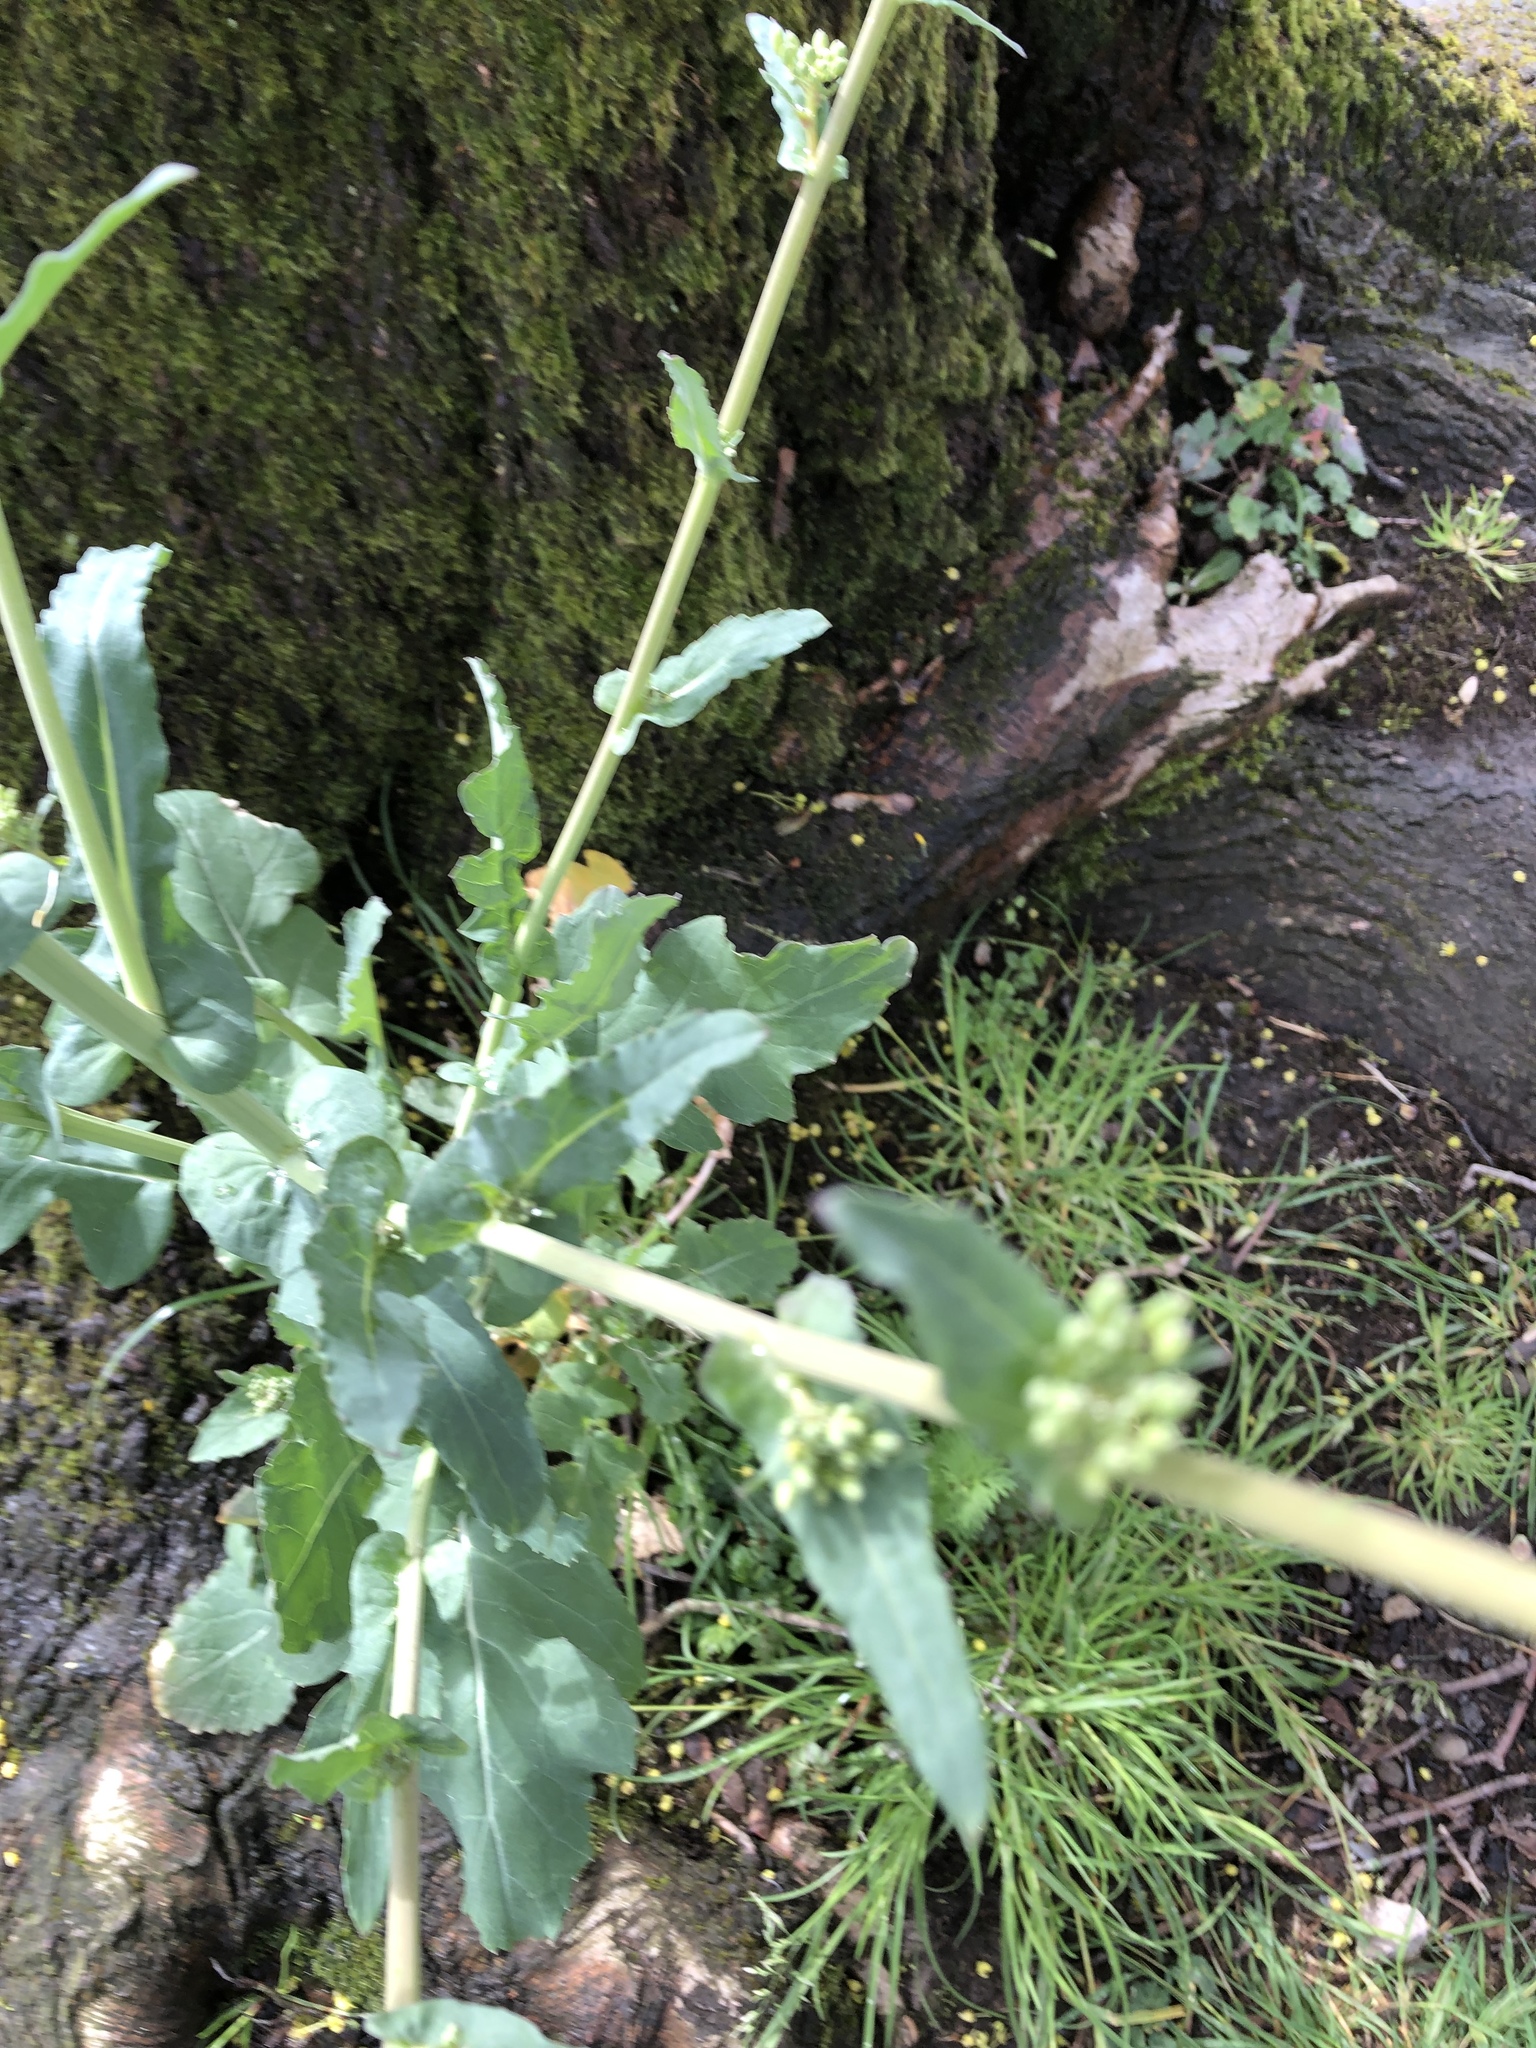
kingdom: Plantae
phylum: Tracheophyta
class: Magnoliopsida
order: Brassicales
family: Brassicaceae
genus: Brassica
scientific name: Brassica napus
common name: Rape
